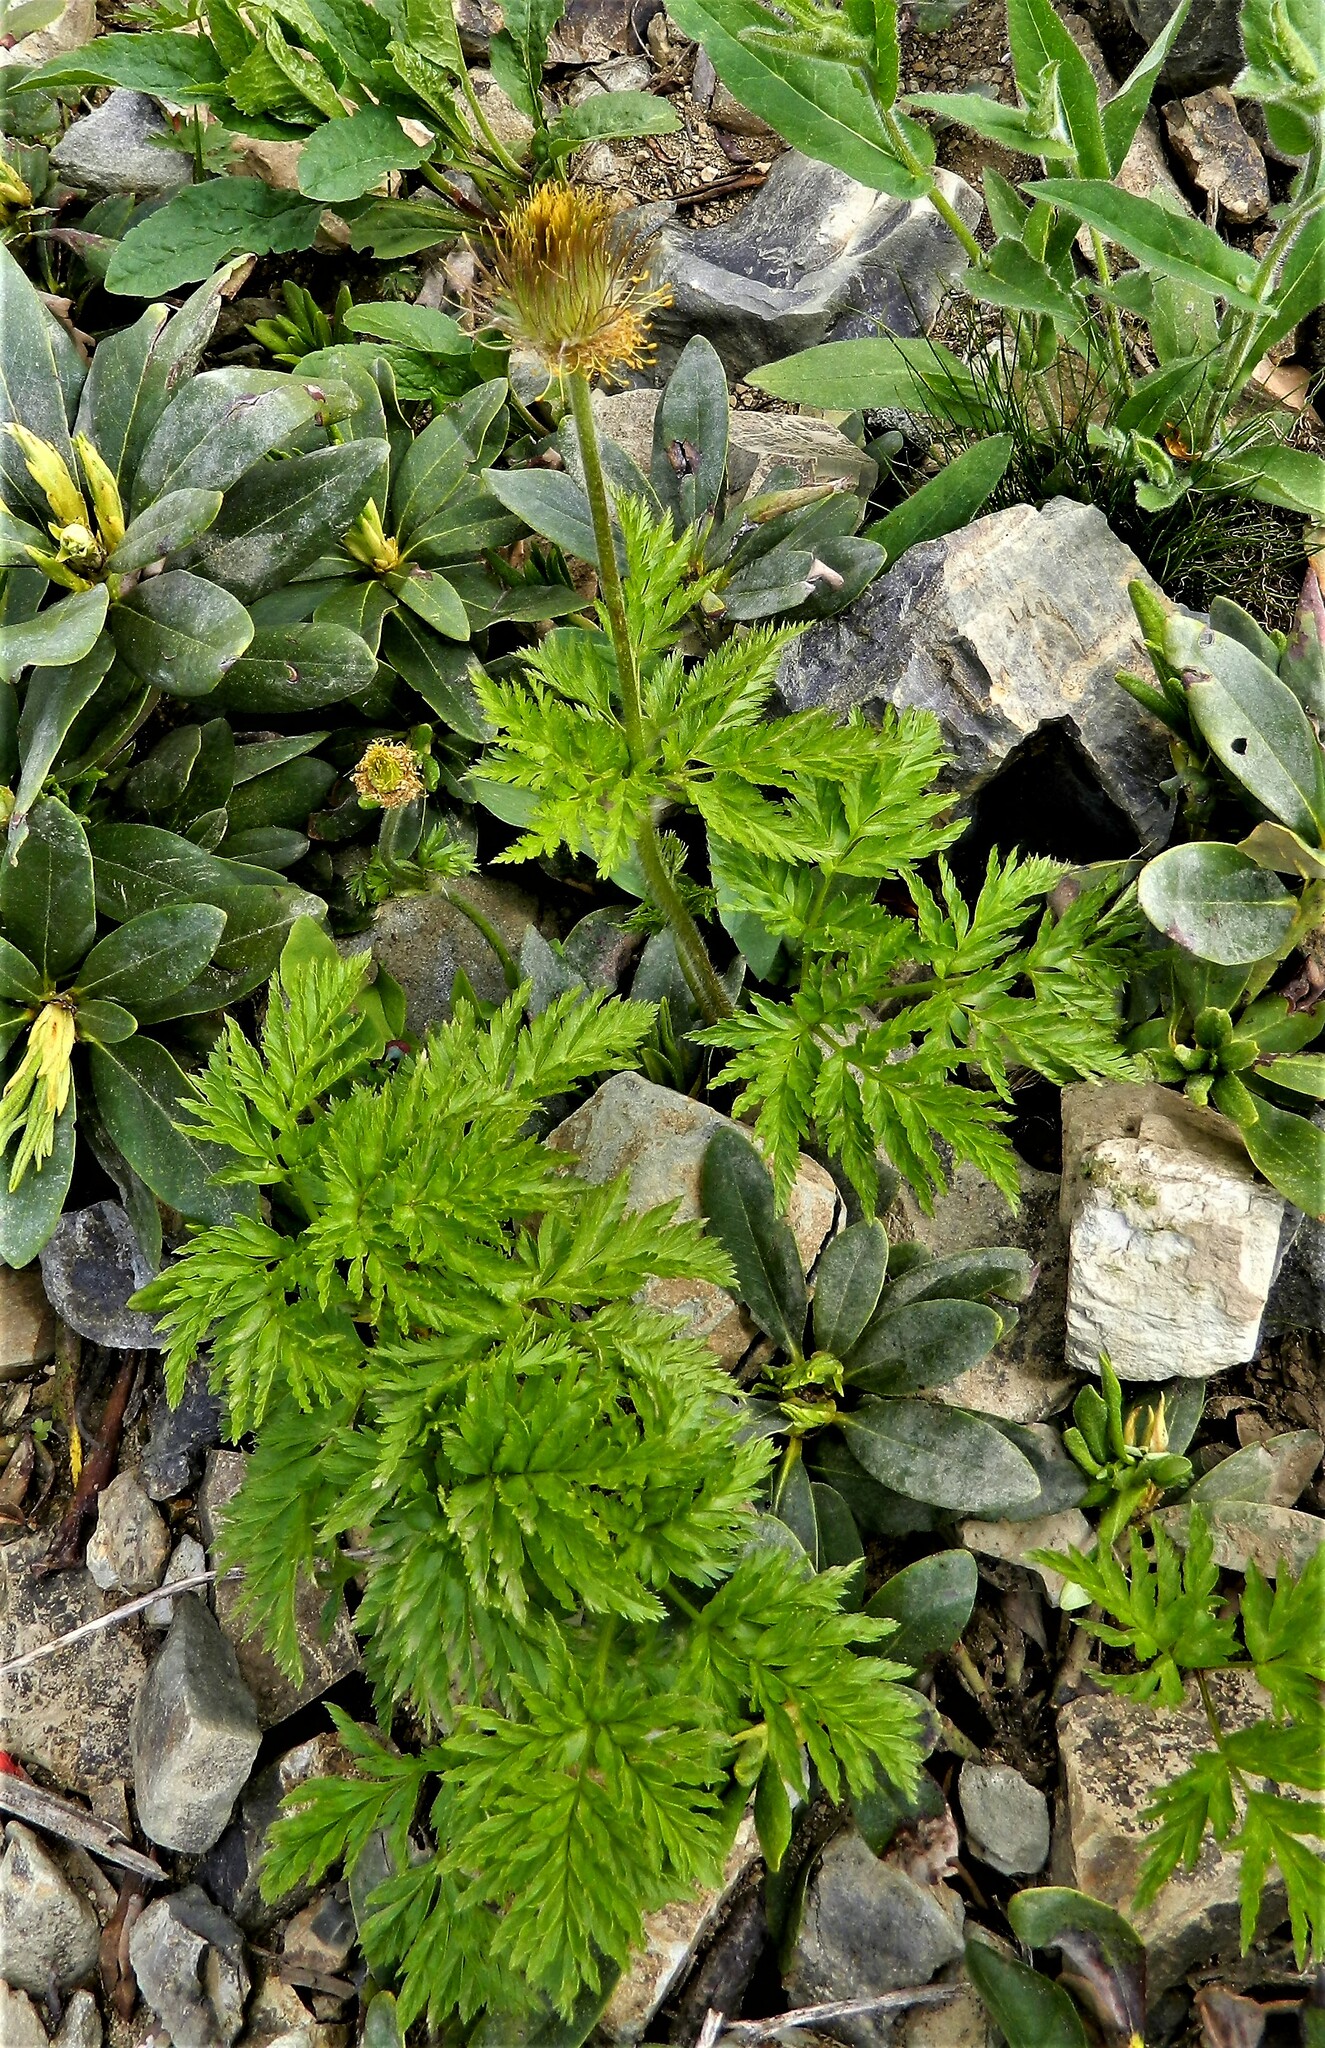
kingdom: Plantae
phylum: Tracheophyta
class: Magnoliopsida
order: Ranunculales
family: Ranunculaceae
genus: Pulsatilla
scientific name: Pulsatilla aurea
